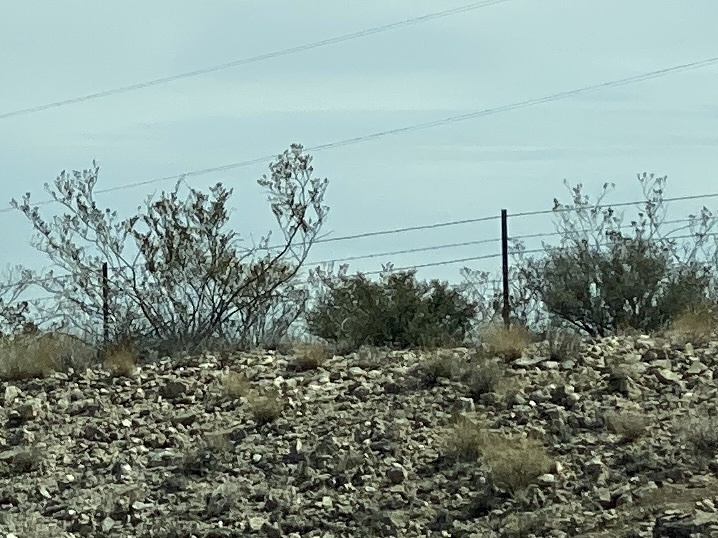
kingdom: Plantae
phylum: Tracheophyta
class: Magnoliopsida
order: Zygophyllales
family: Zygophyllaceae
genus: Larrea
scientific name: Larrea tridentata
